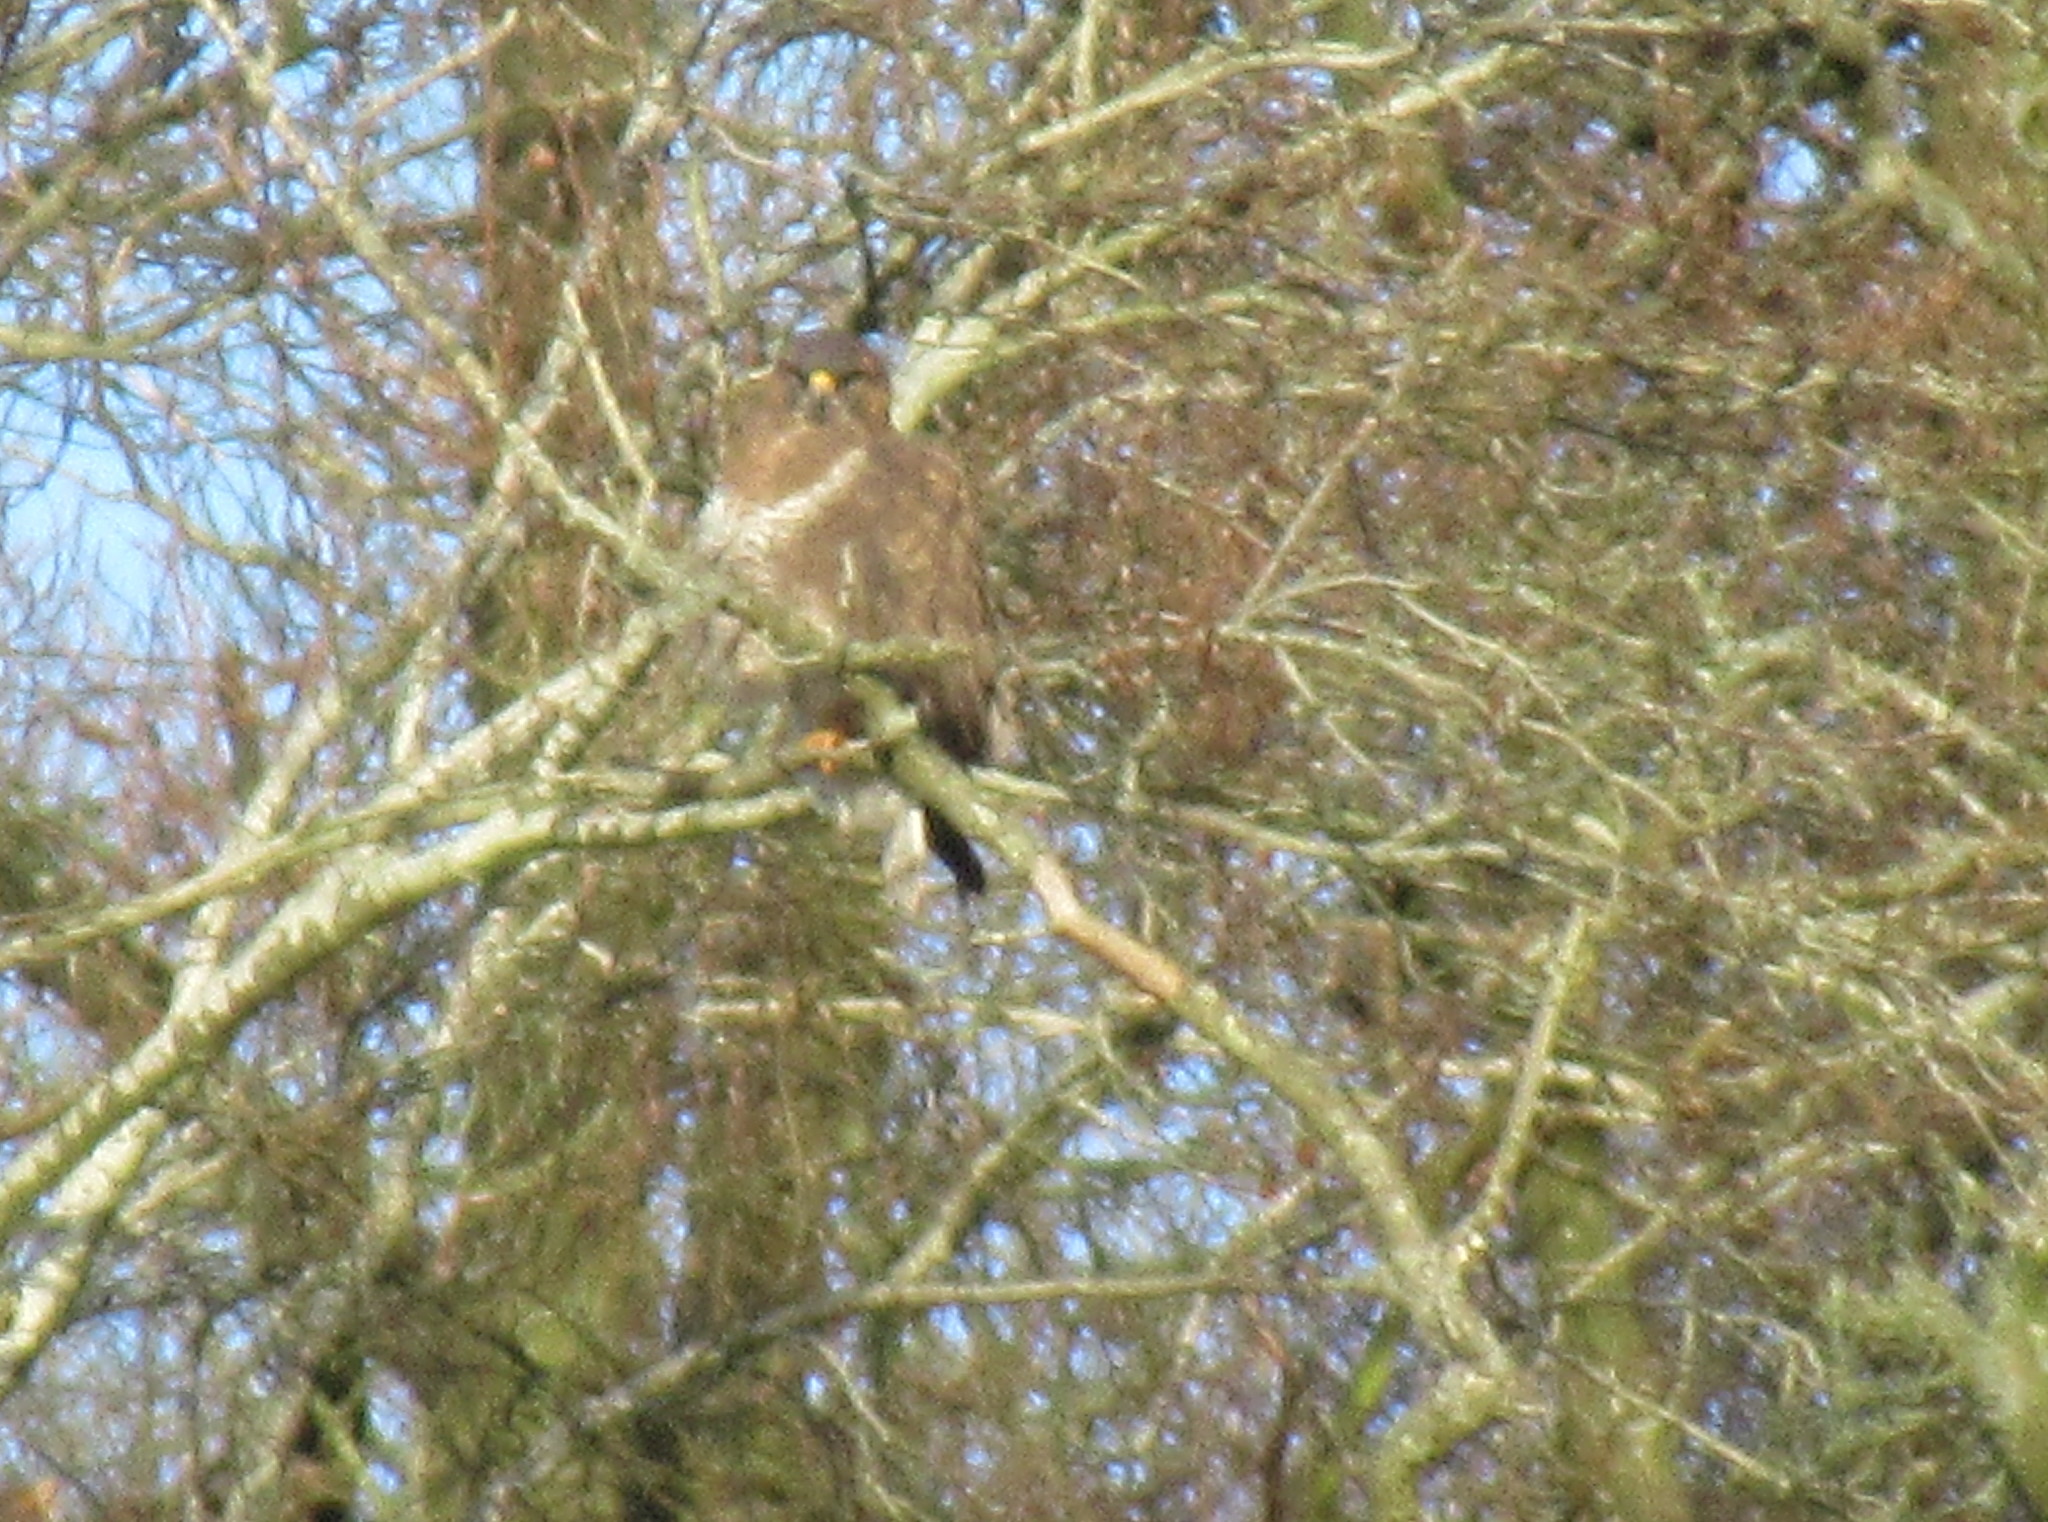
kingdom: Animalia
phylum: Chordata
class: Aves
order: Accipitriformes
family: Accipitridae
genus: Buteo
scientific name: Buteo buteo
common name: Common buzzard
